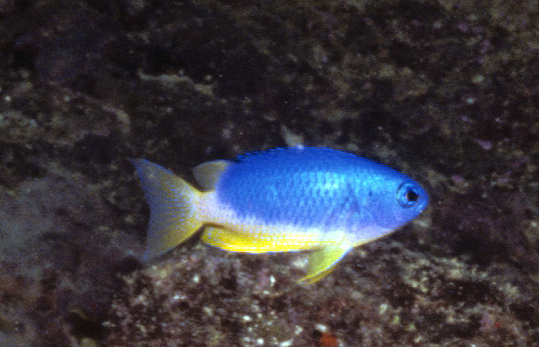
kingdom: Animalia
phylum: Chordata
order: Perciformes
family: Pomacentridae
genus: Pomacentrus
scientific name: Pomacentrus coelestis
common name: Neon damsel
